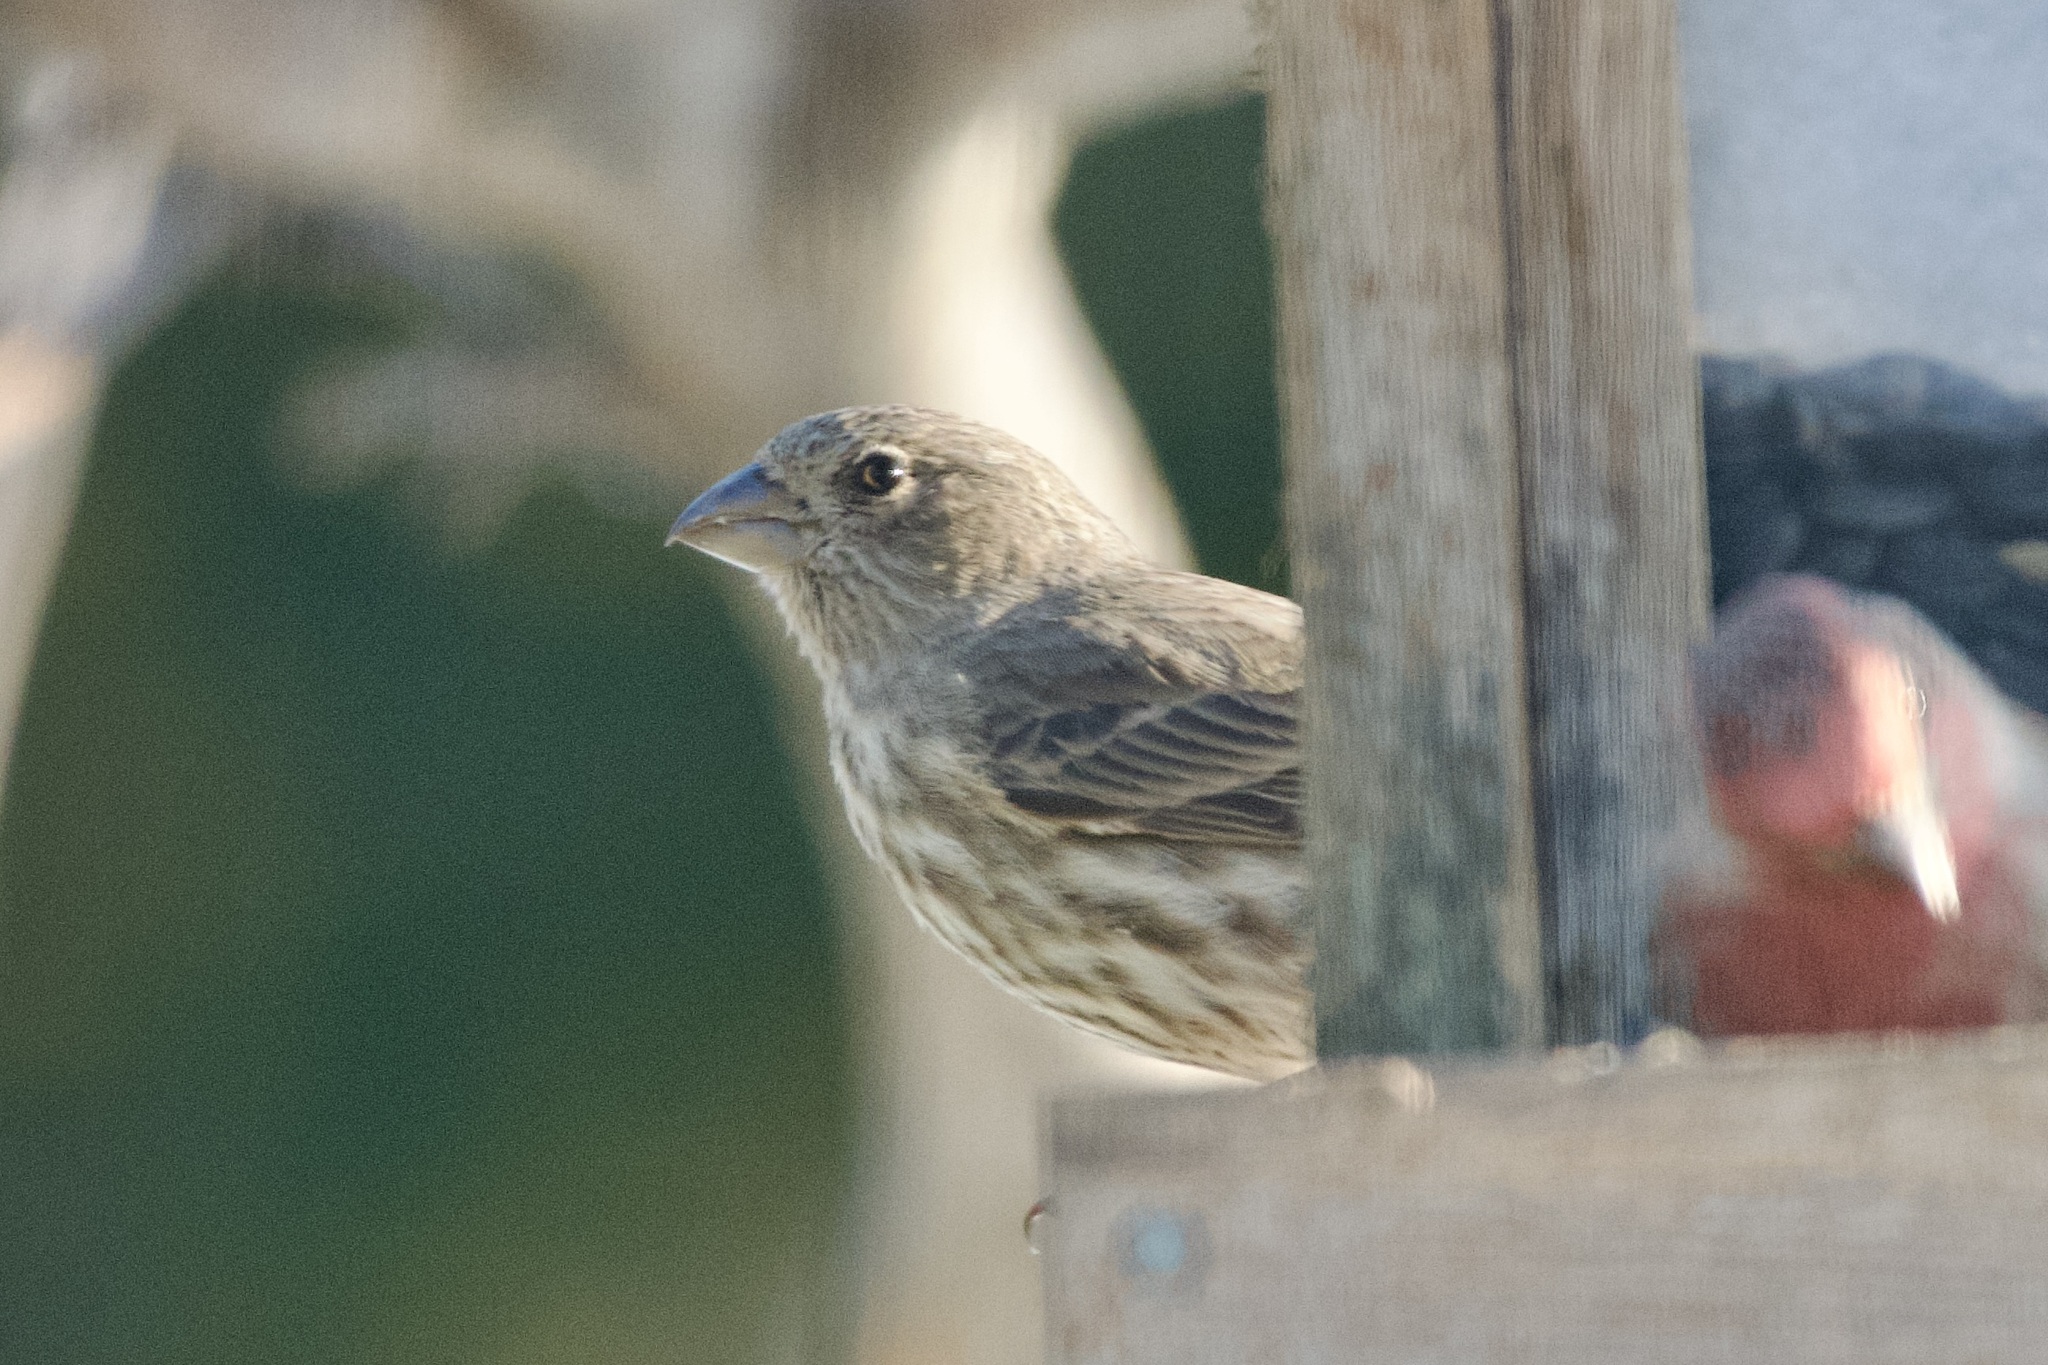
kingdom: Animalia
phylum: Chordata
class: Aves
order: Passeriformes
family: Fringillidae
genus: Haemorhous
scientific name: Haemorhous mexicanus
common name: House finch
